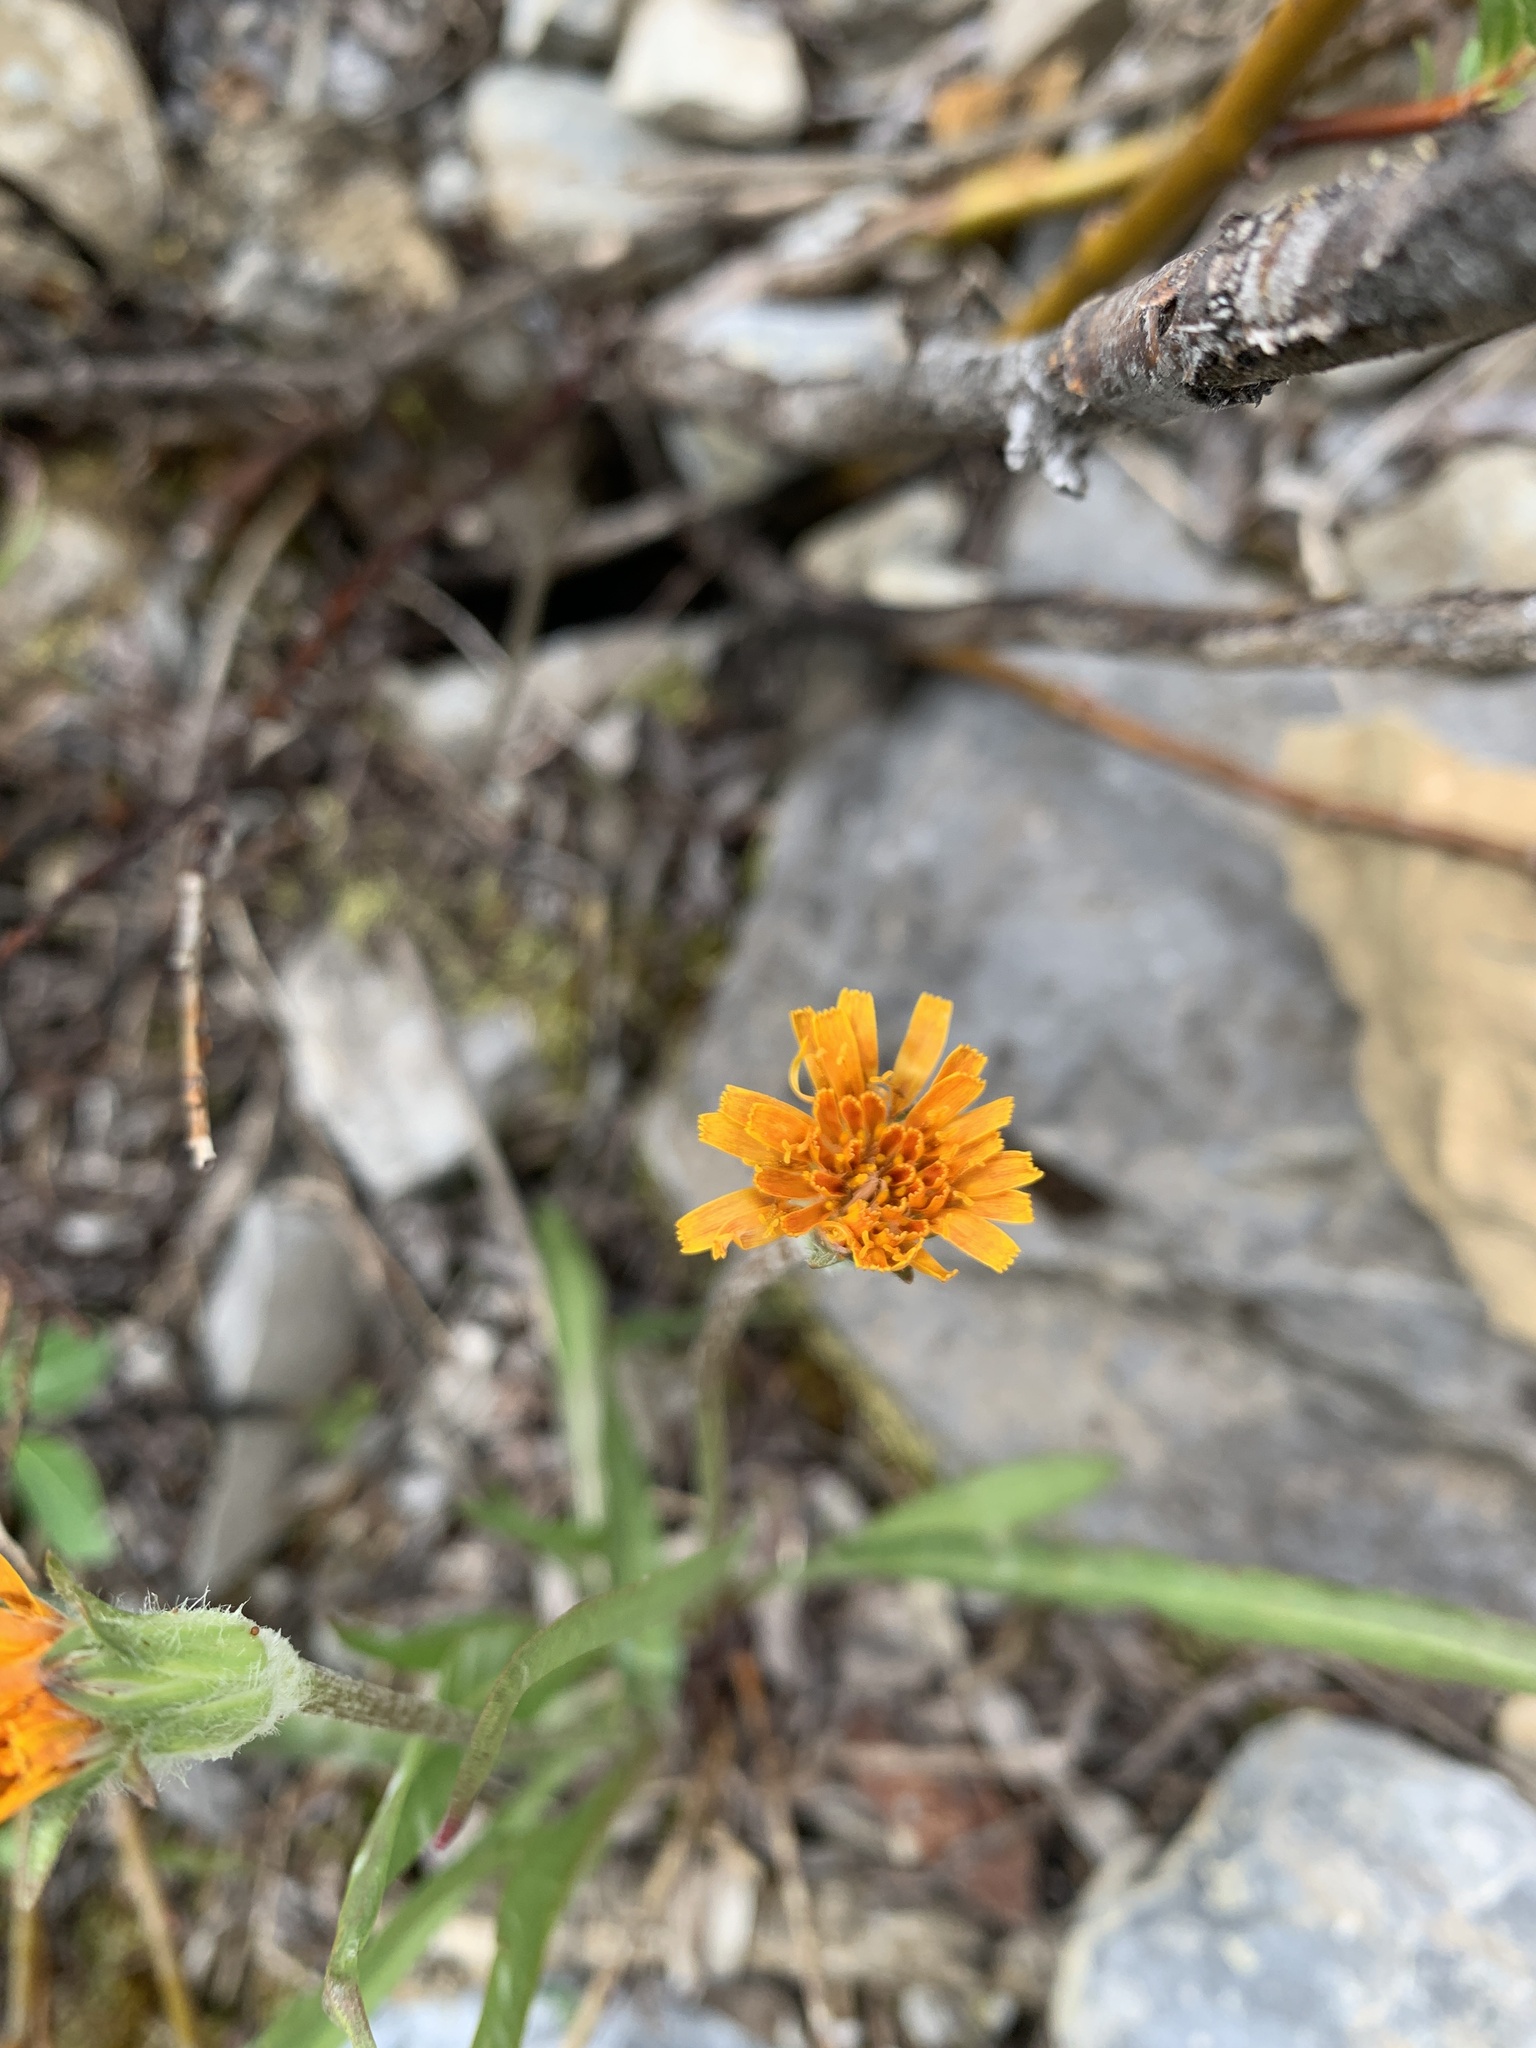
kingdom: Plantae
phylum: Tracheophyta
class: Magnoliopsida
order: Asterales
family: Asteraceae
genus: Agoseris
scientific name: Agoseris aurantiaca
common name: Mountain agoseris
